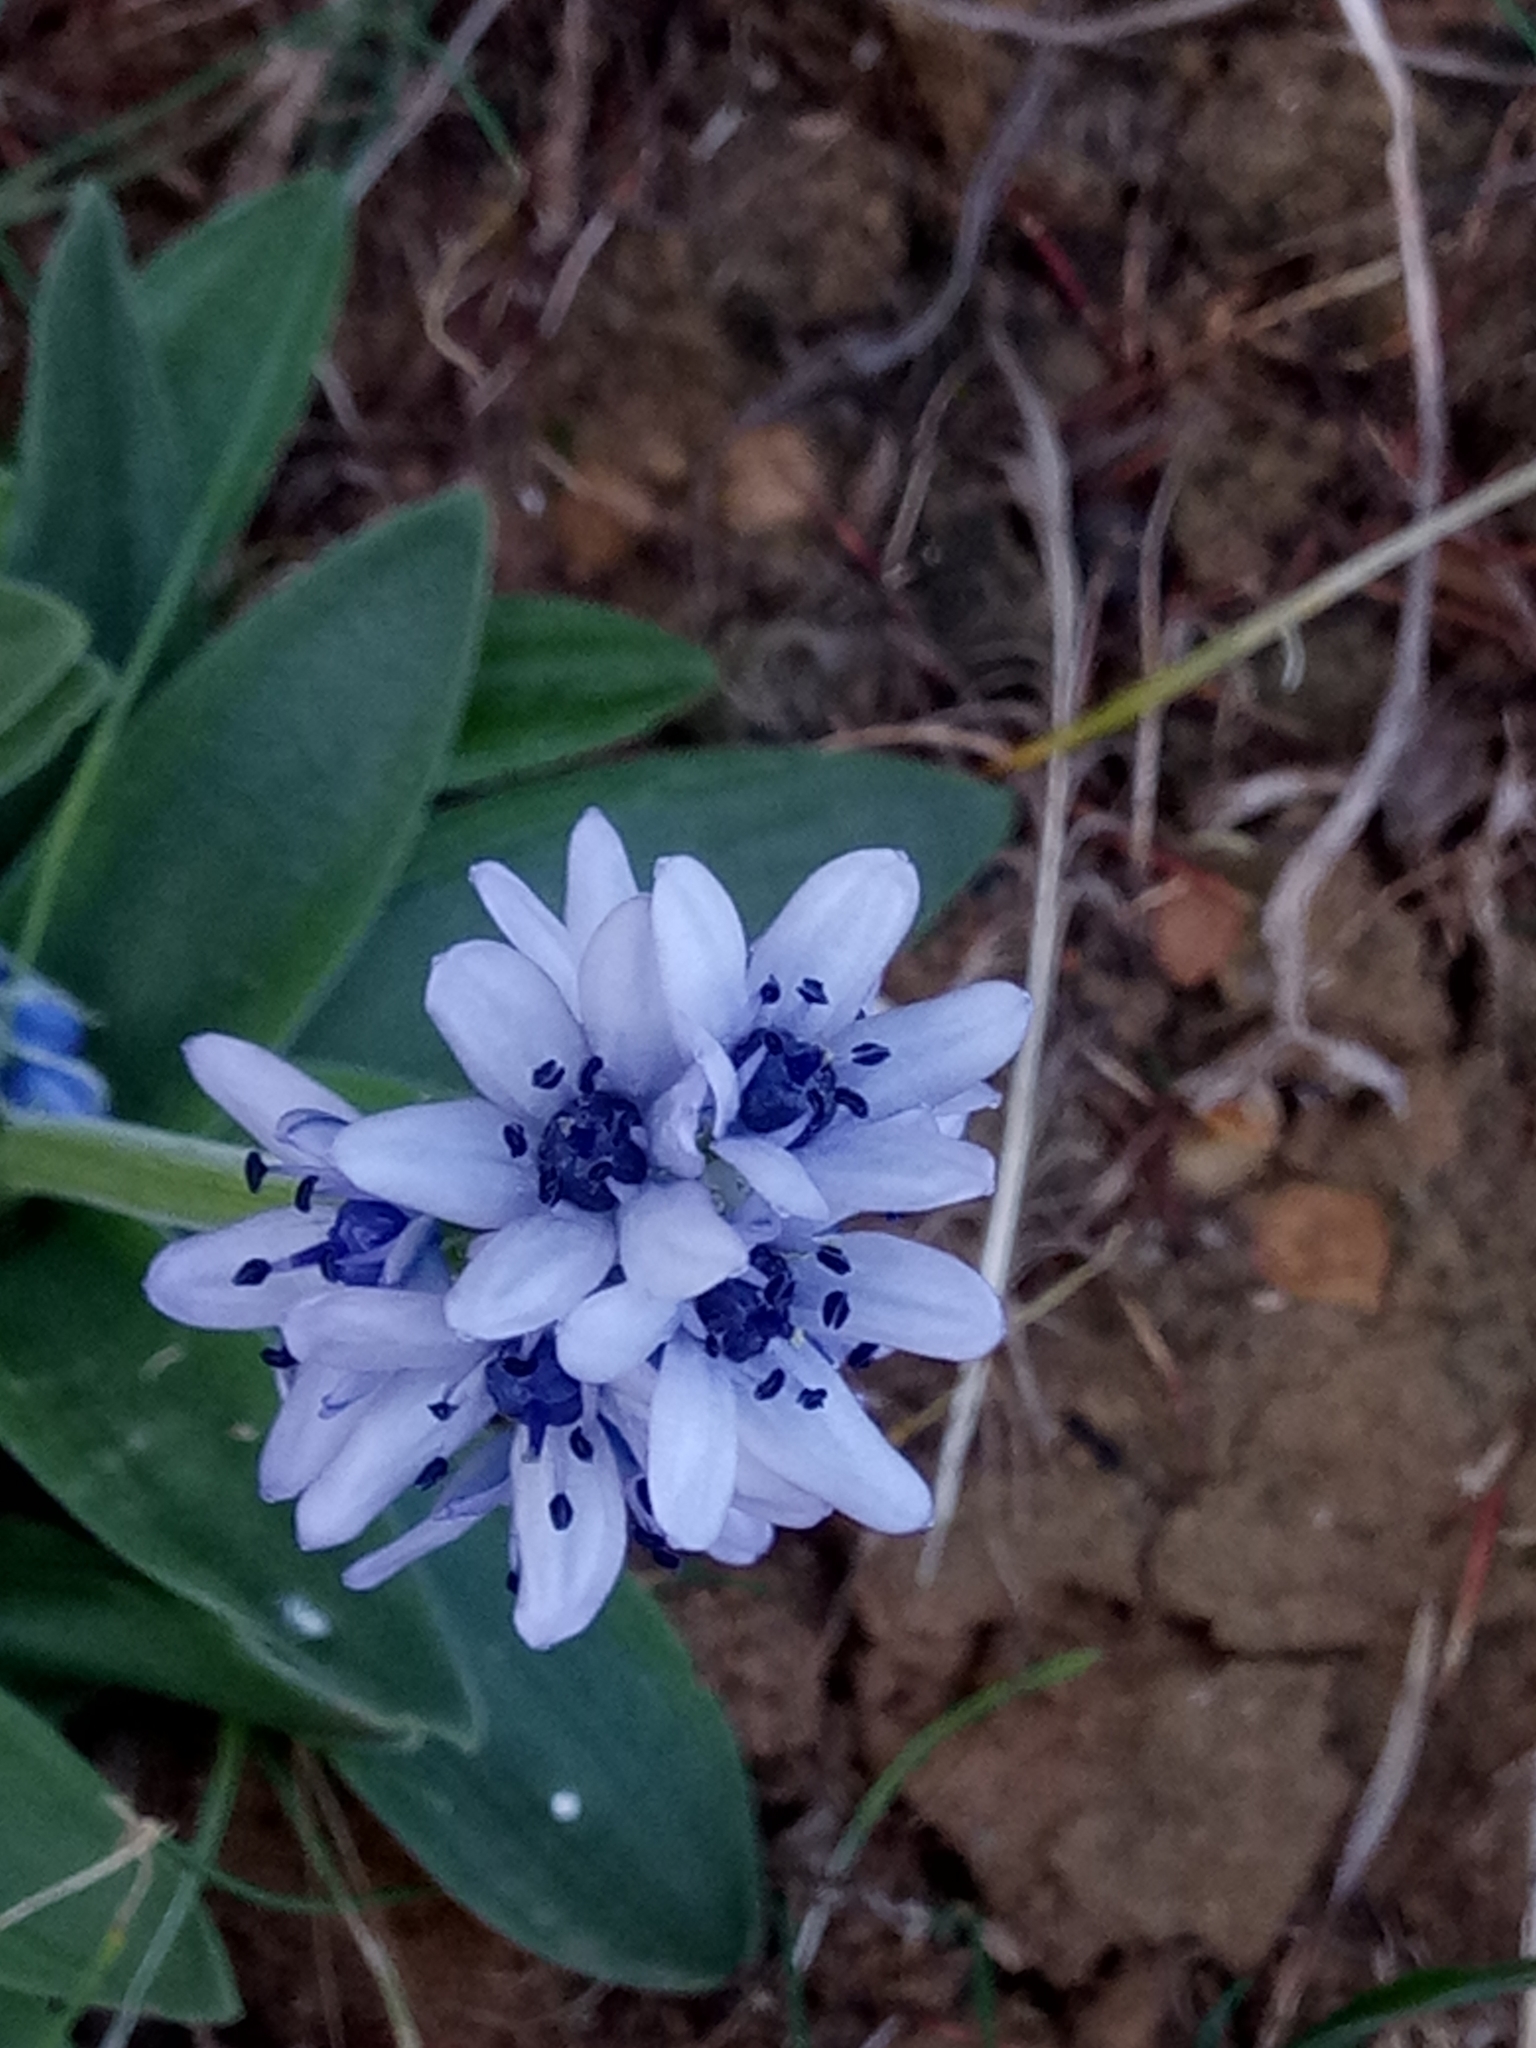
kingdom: Plantae
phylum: Tracheophyta
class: Liliopsida
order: Asparagales
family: Asparagaceae
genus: Hyacinthoides
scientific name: Hyacinthoides lingulata
